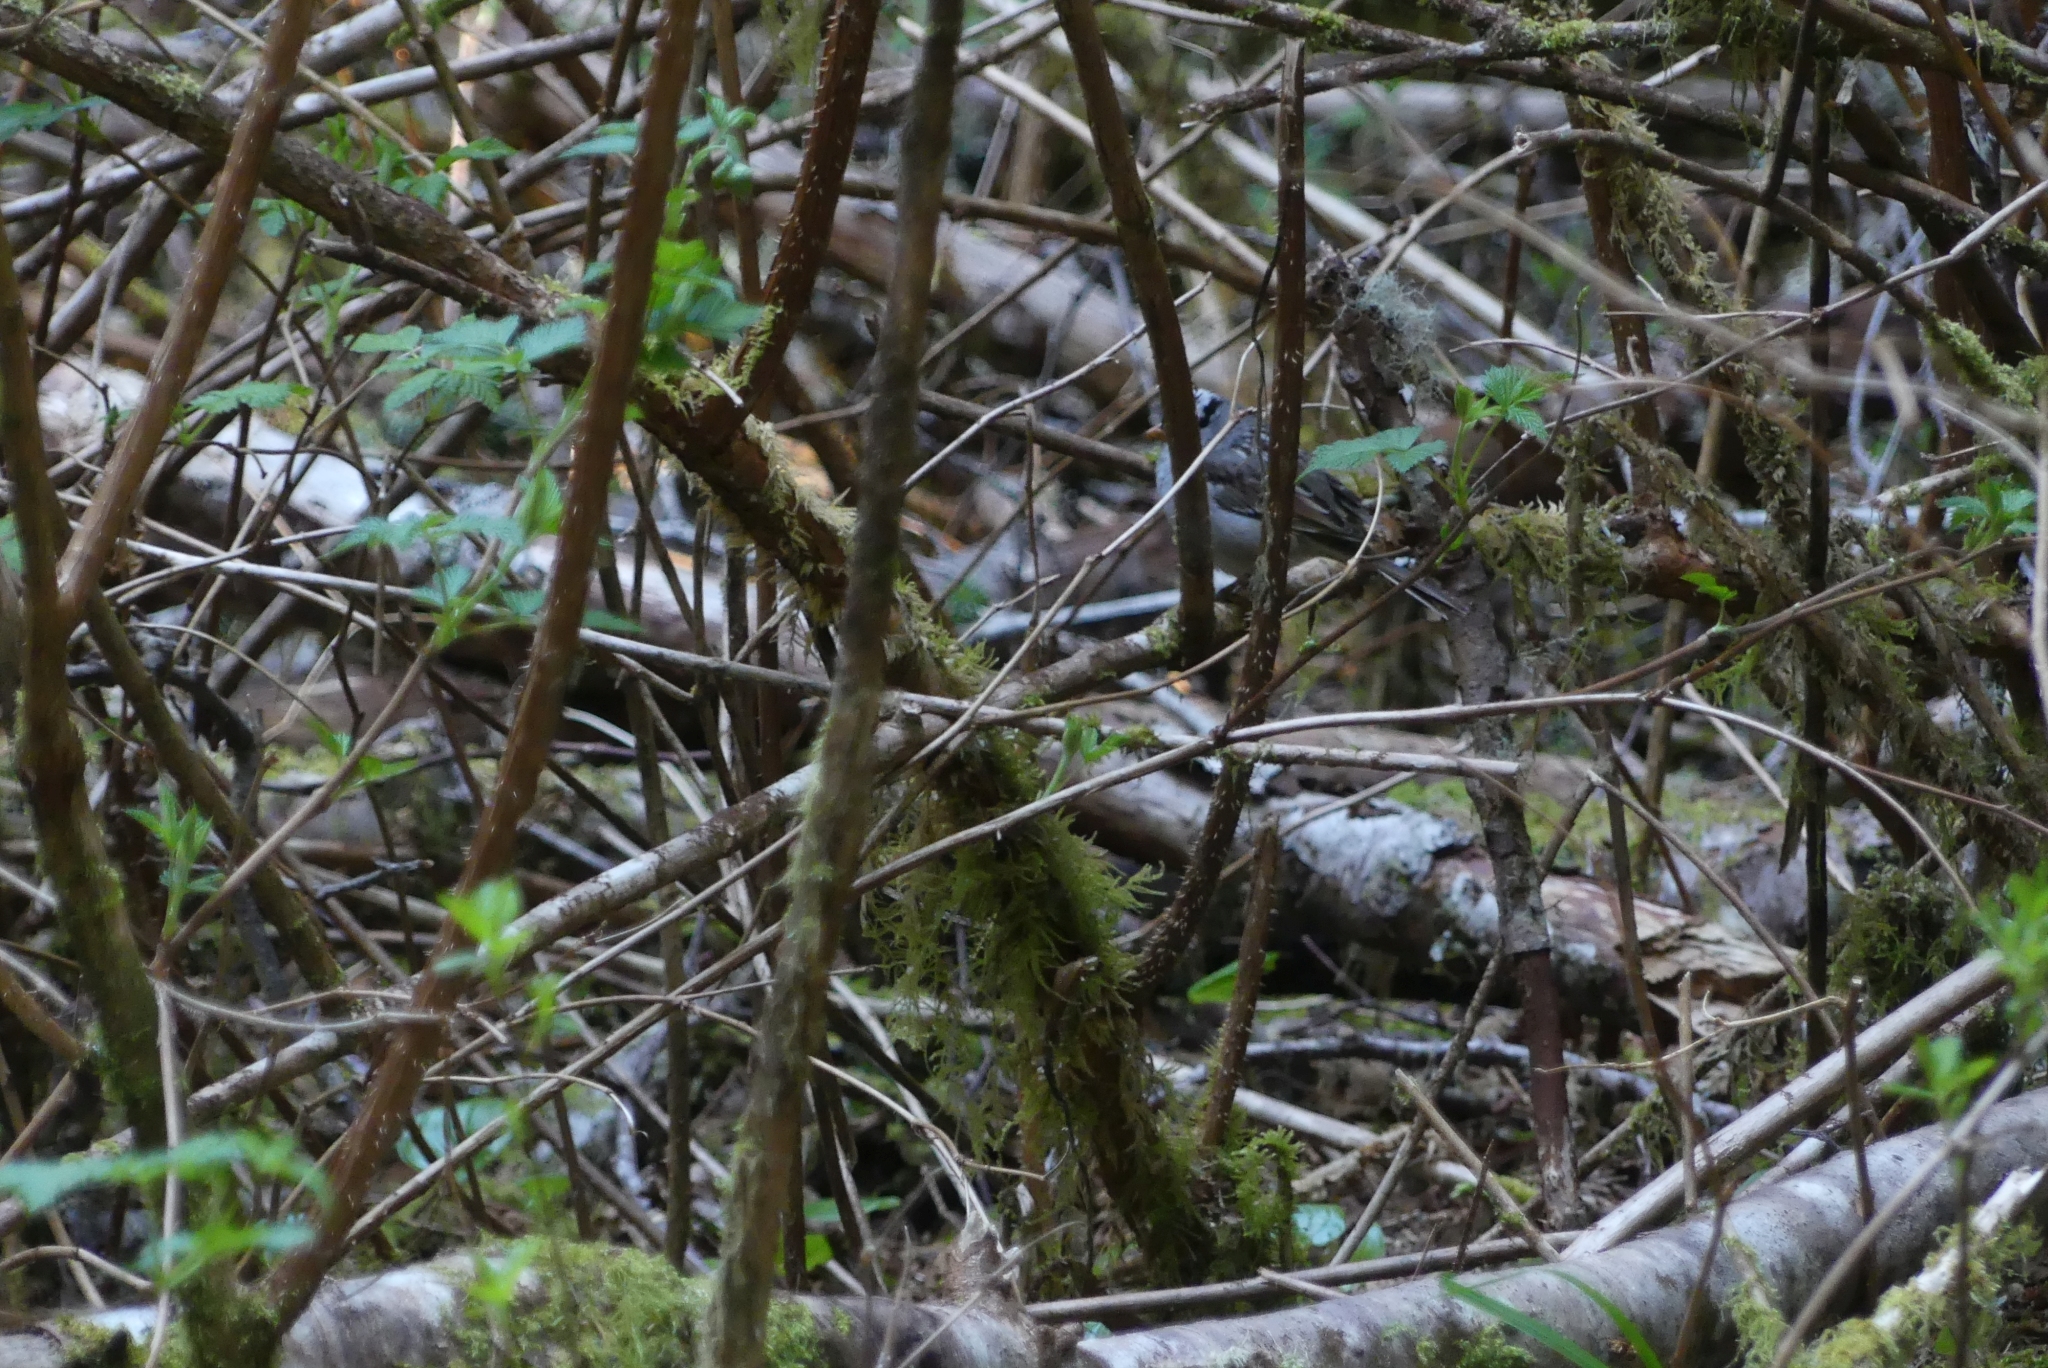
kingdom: Animalia
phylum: Chordata
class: Aves
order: Passeriformes
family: Passerellidae
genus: Zonotrichia
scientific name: Zonotrichia leucophrys
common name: White-crowned sparrow
